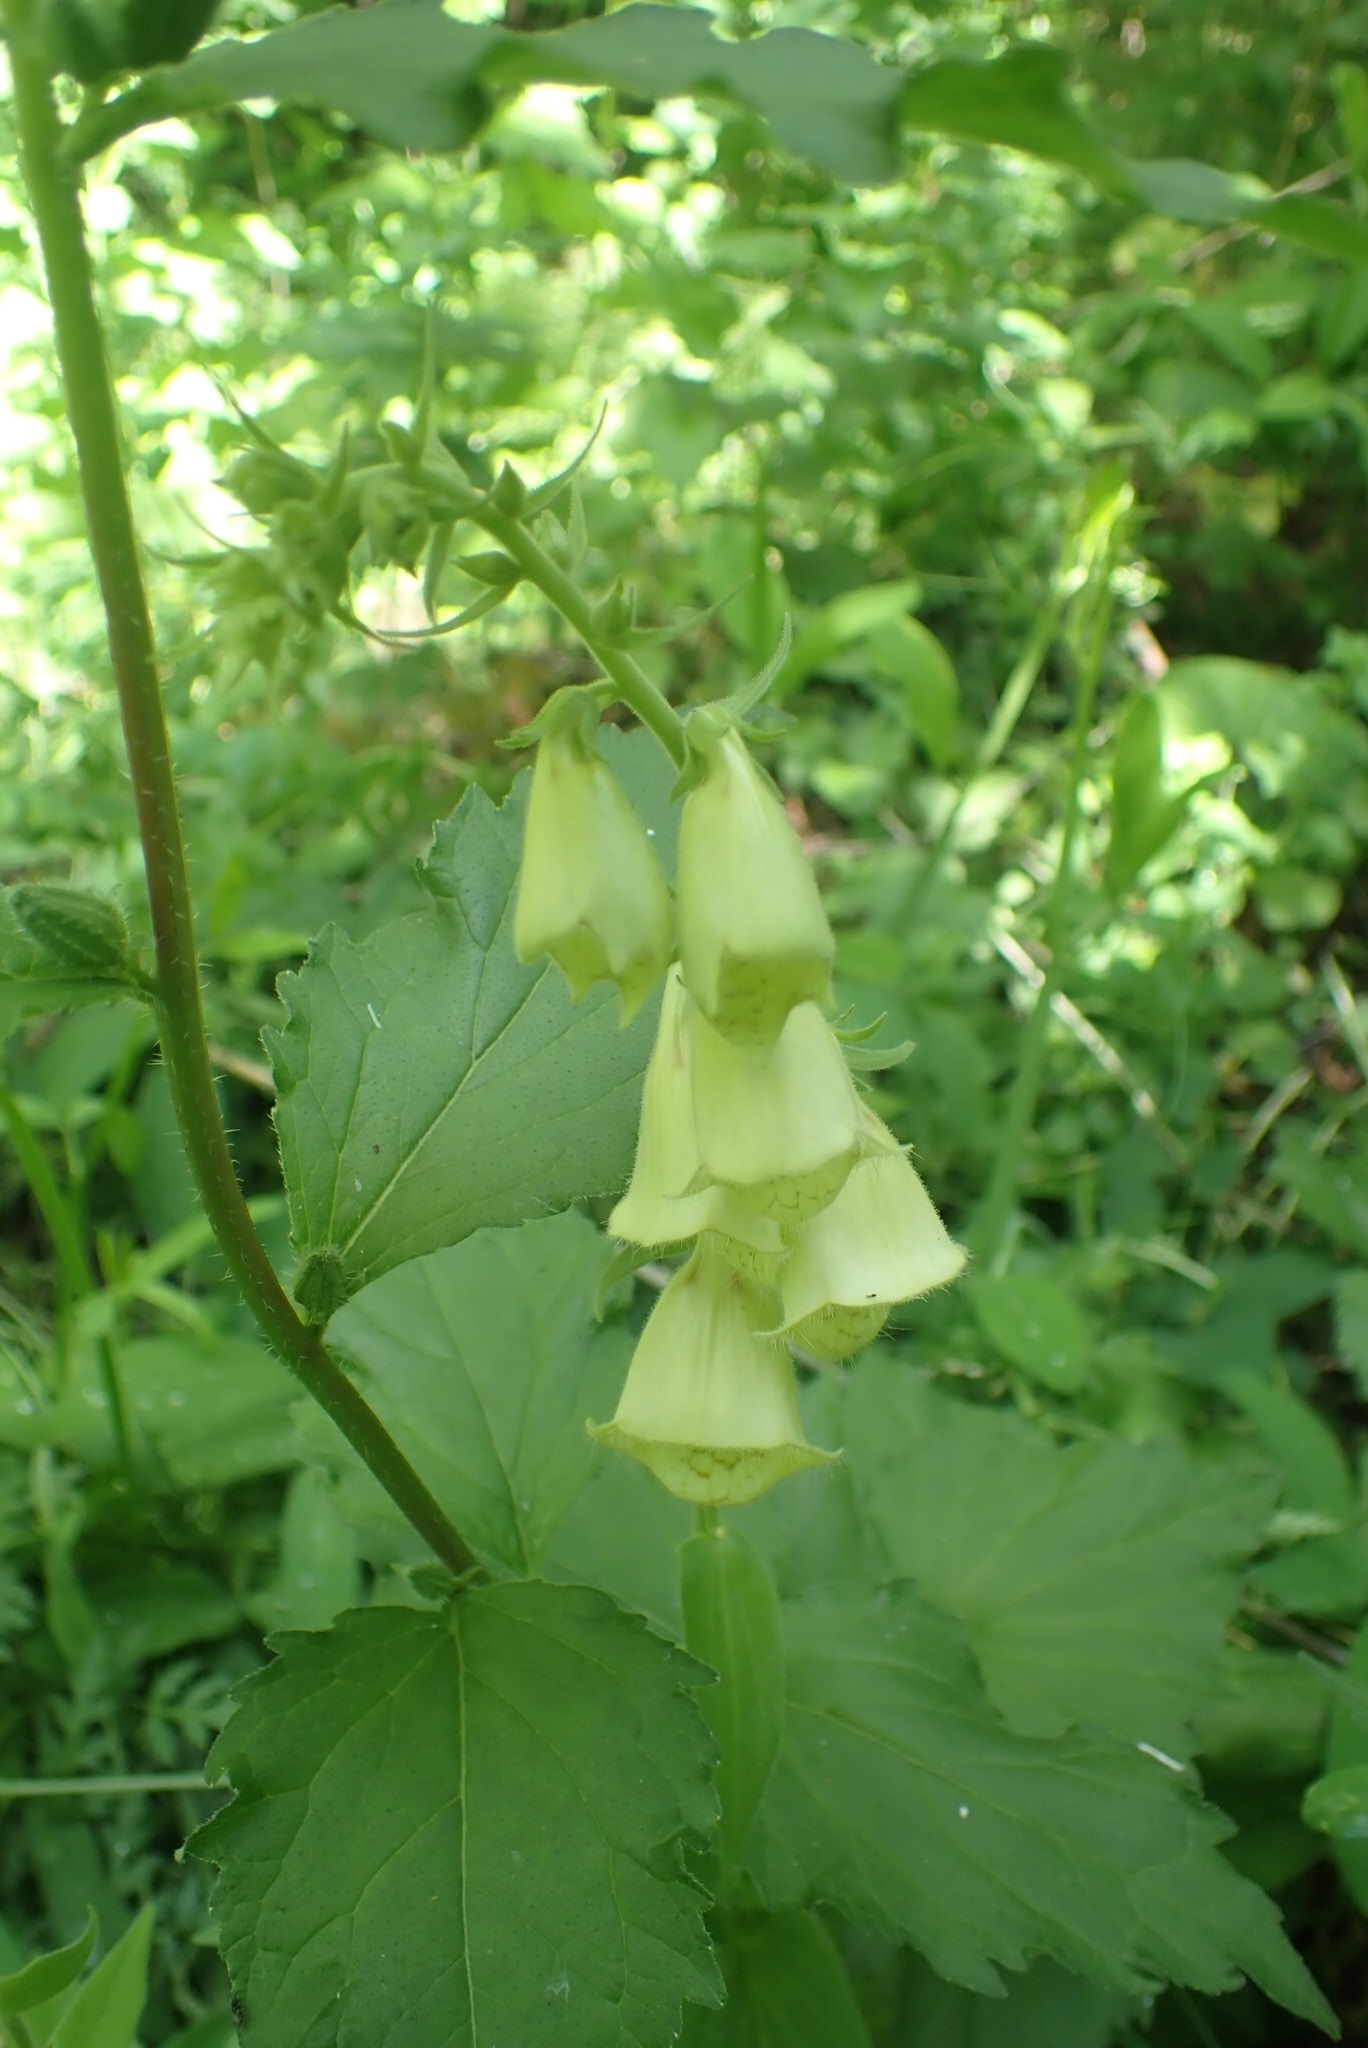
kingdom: Plantae
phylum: Tracheophyta
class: Magnoliopsida
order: Lamiales
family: Plantaginaceae
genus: Digitalis
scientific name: Digitalis grandiflora
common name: Yellow foxglove
